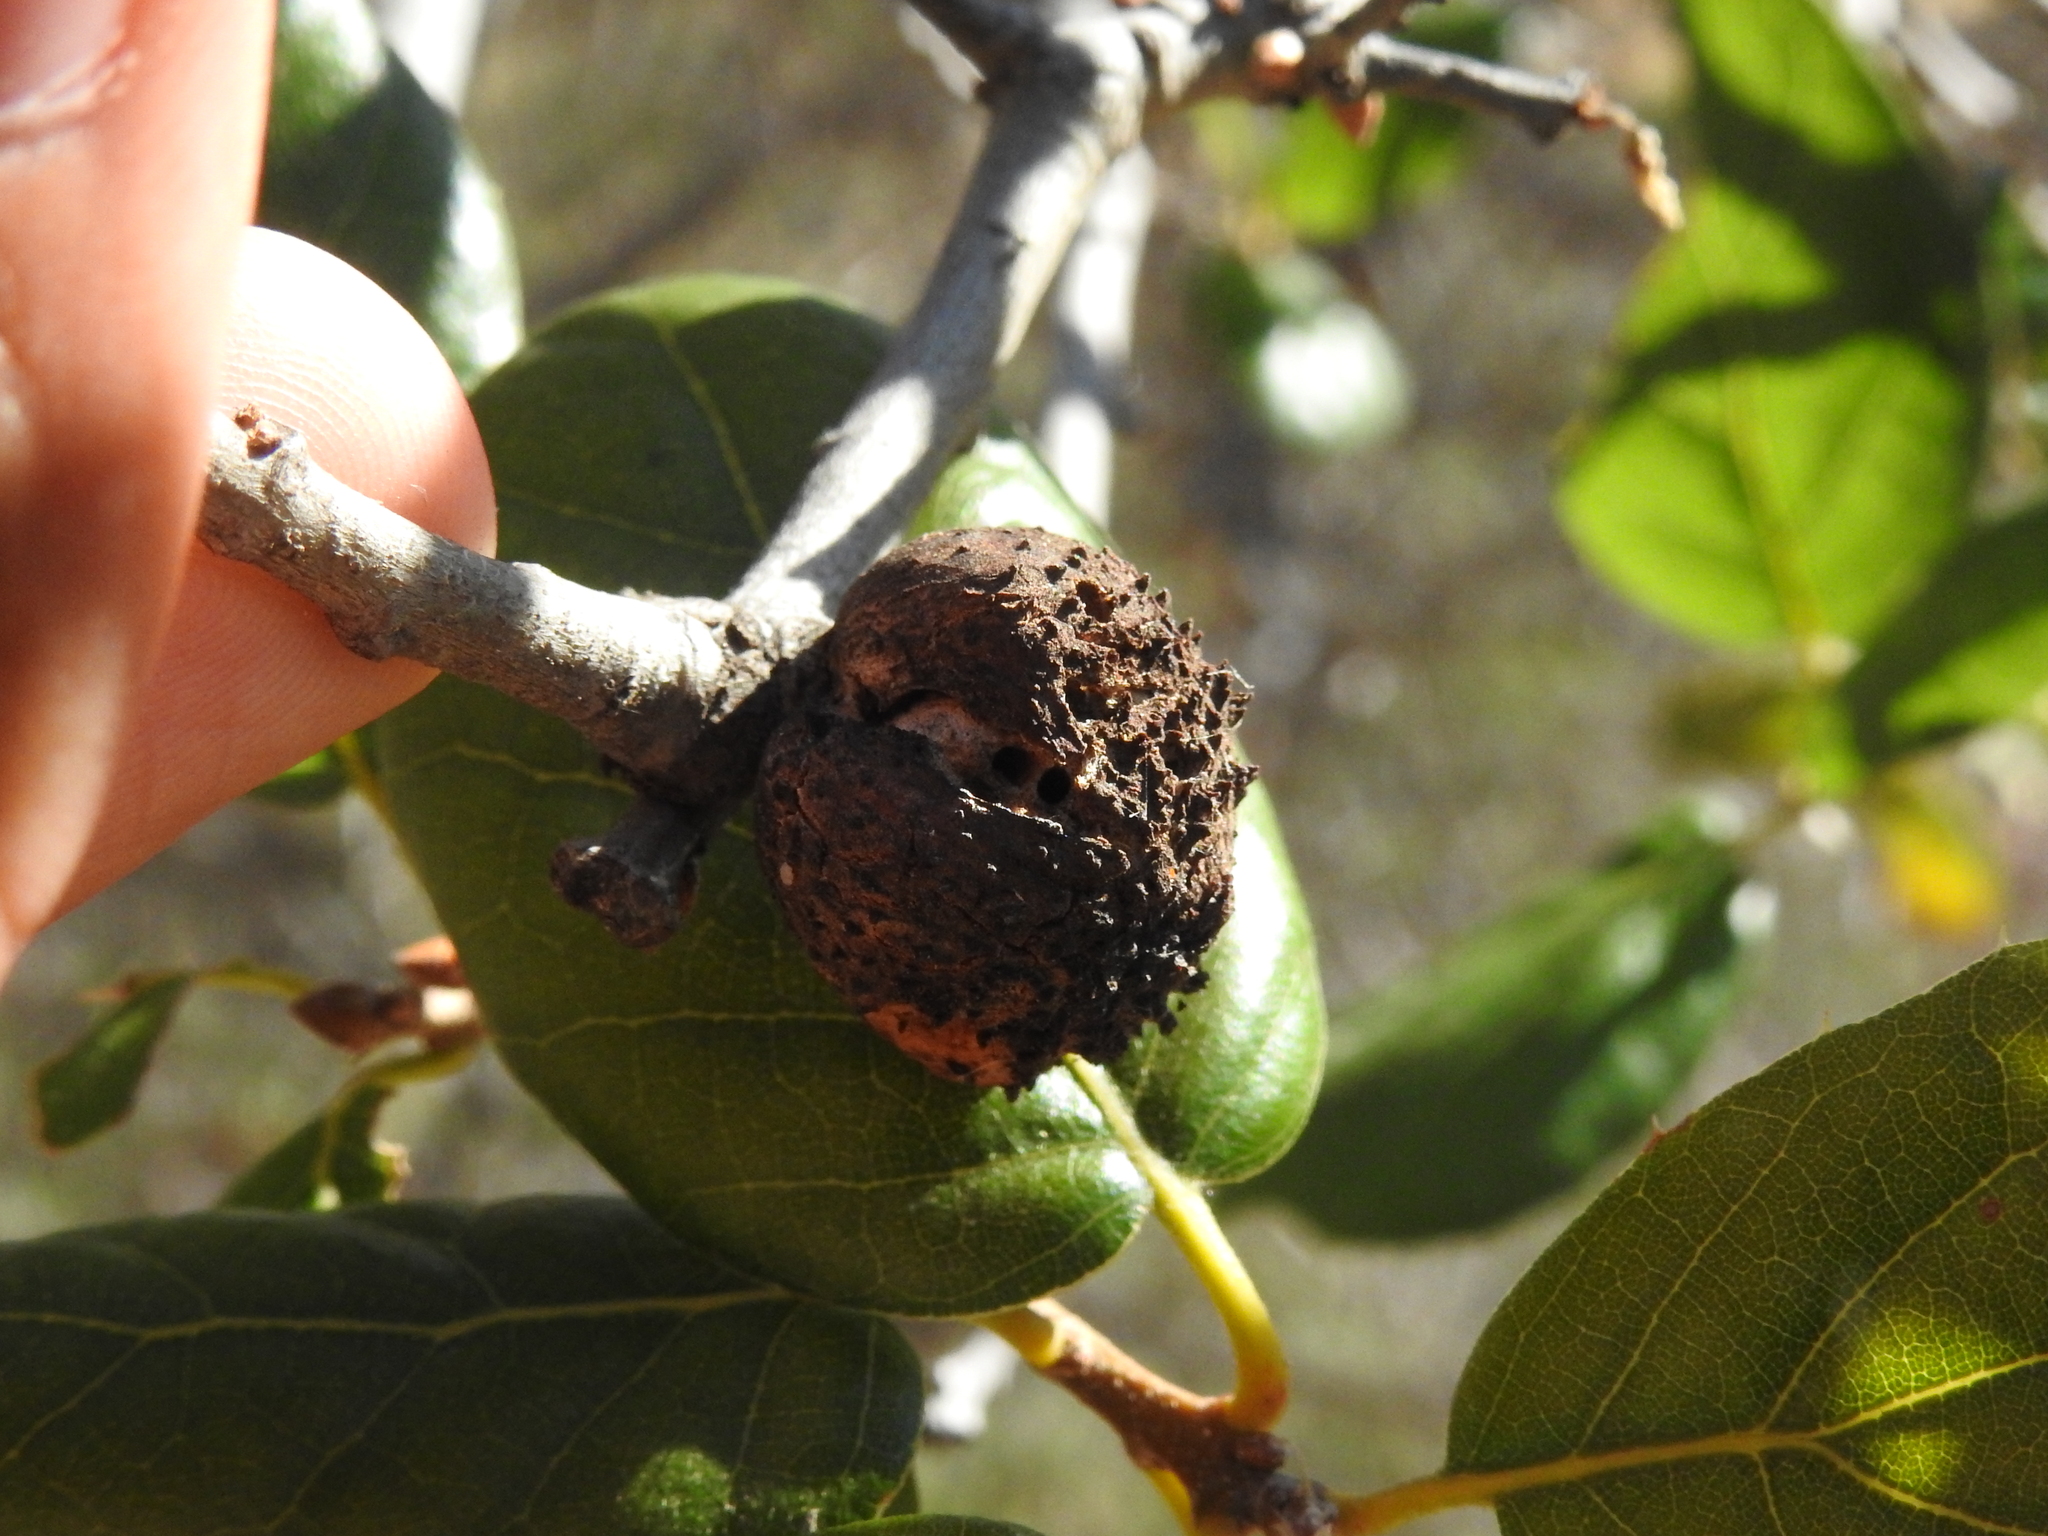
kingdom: Animalia
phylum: Arthropoda
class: Insecta
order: Hymenoptera
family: Cynipidae
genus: Amphibolips
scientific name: Amphibolips quercuspomiformis
